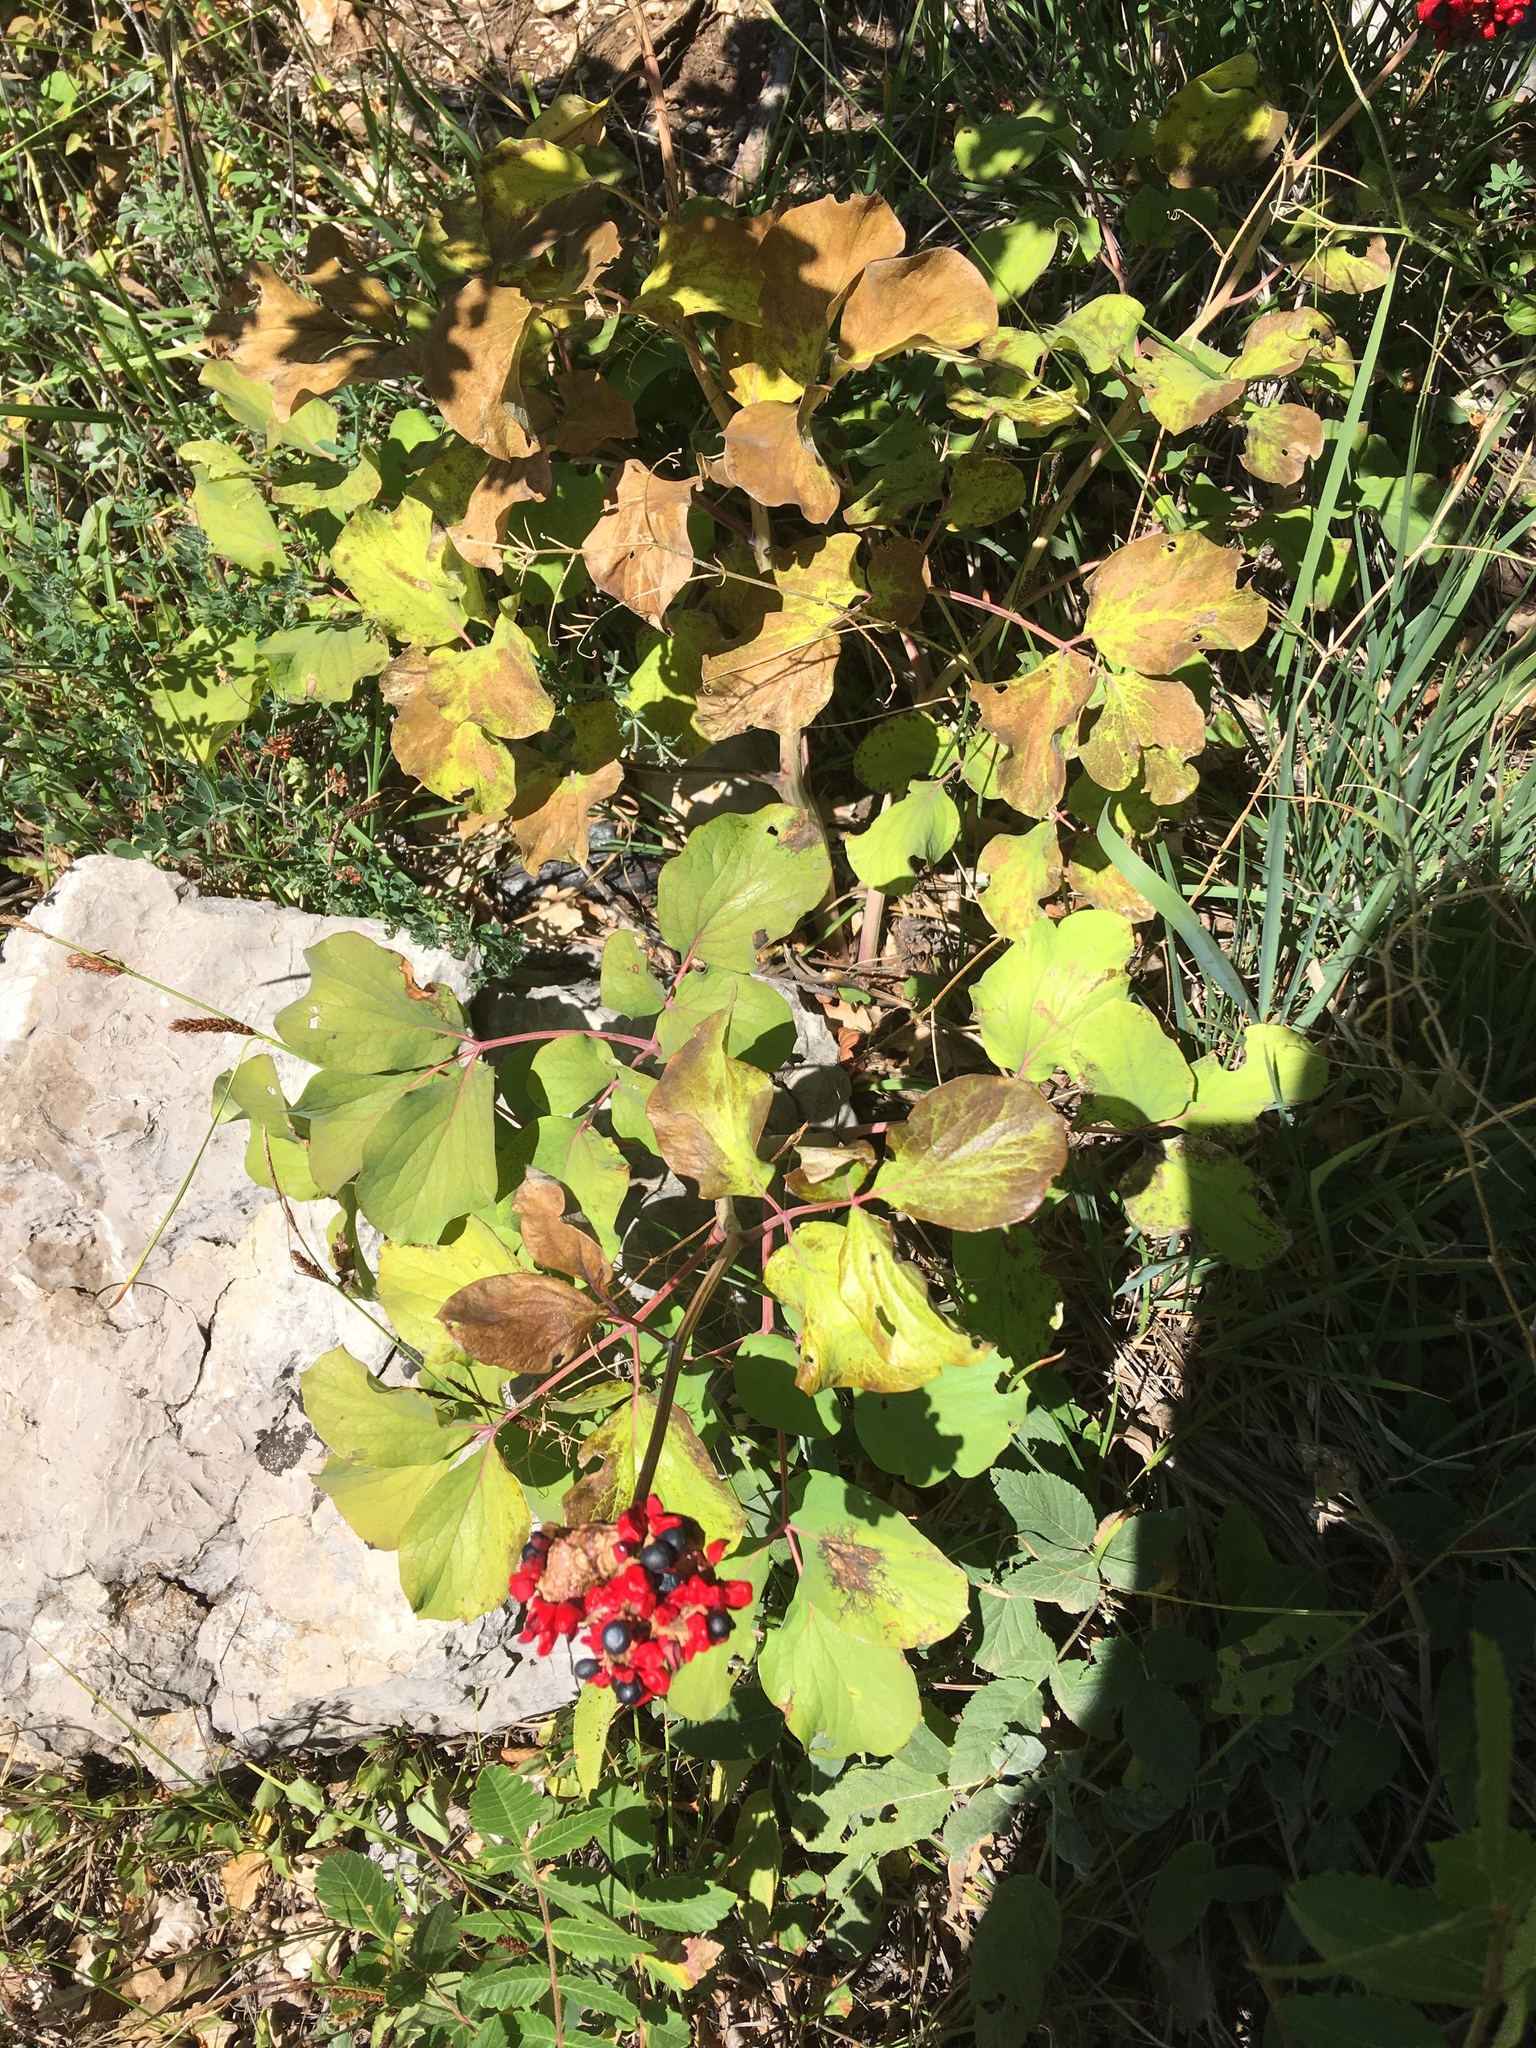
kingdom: Plantae
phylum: Tracheophyta
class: Magnoliopsida
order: Saxifragales
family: Paeoniaceae
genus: Paeonia
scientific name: Paeonia daurica
